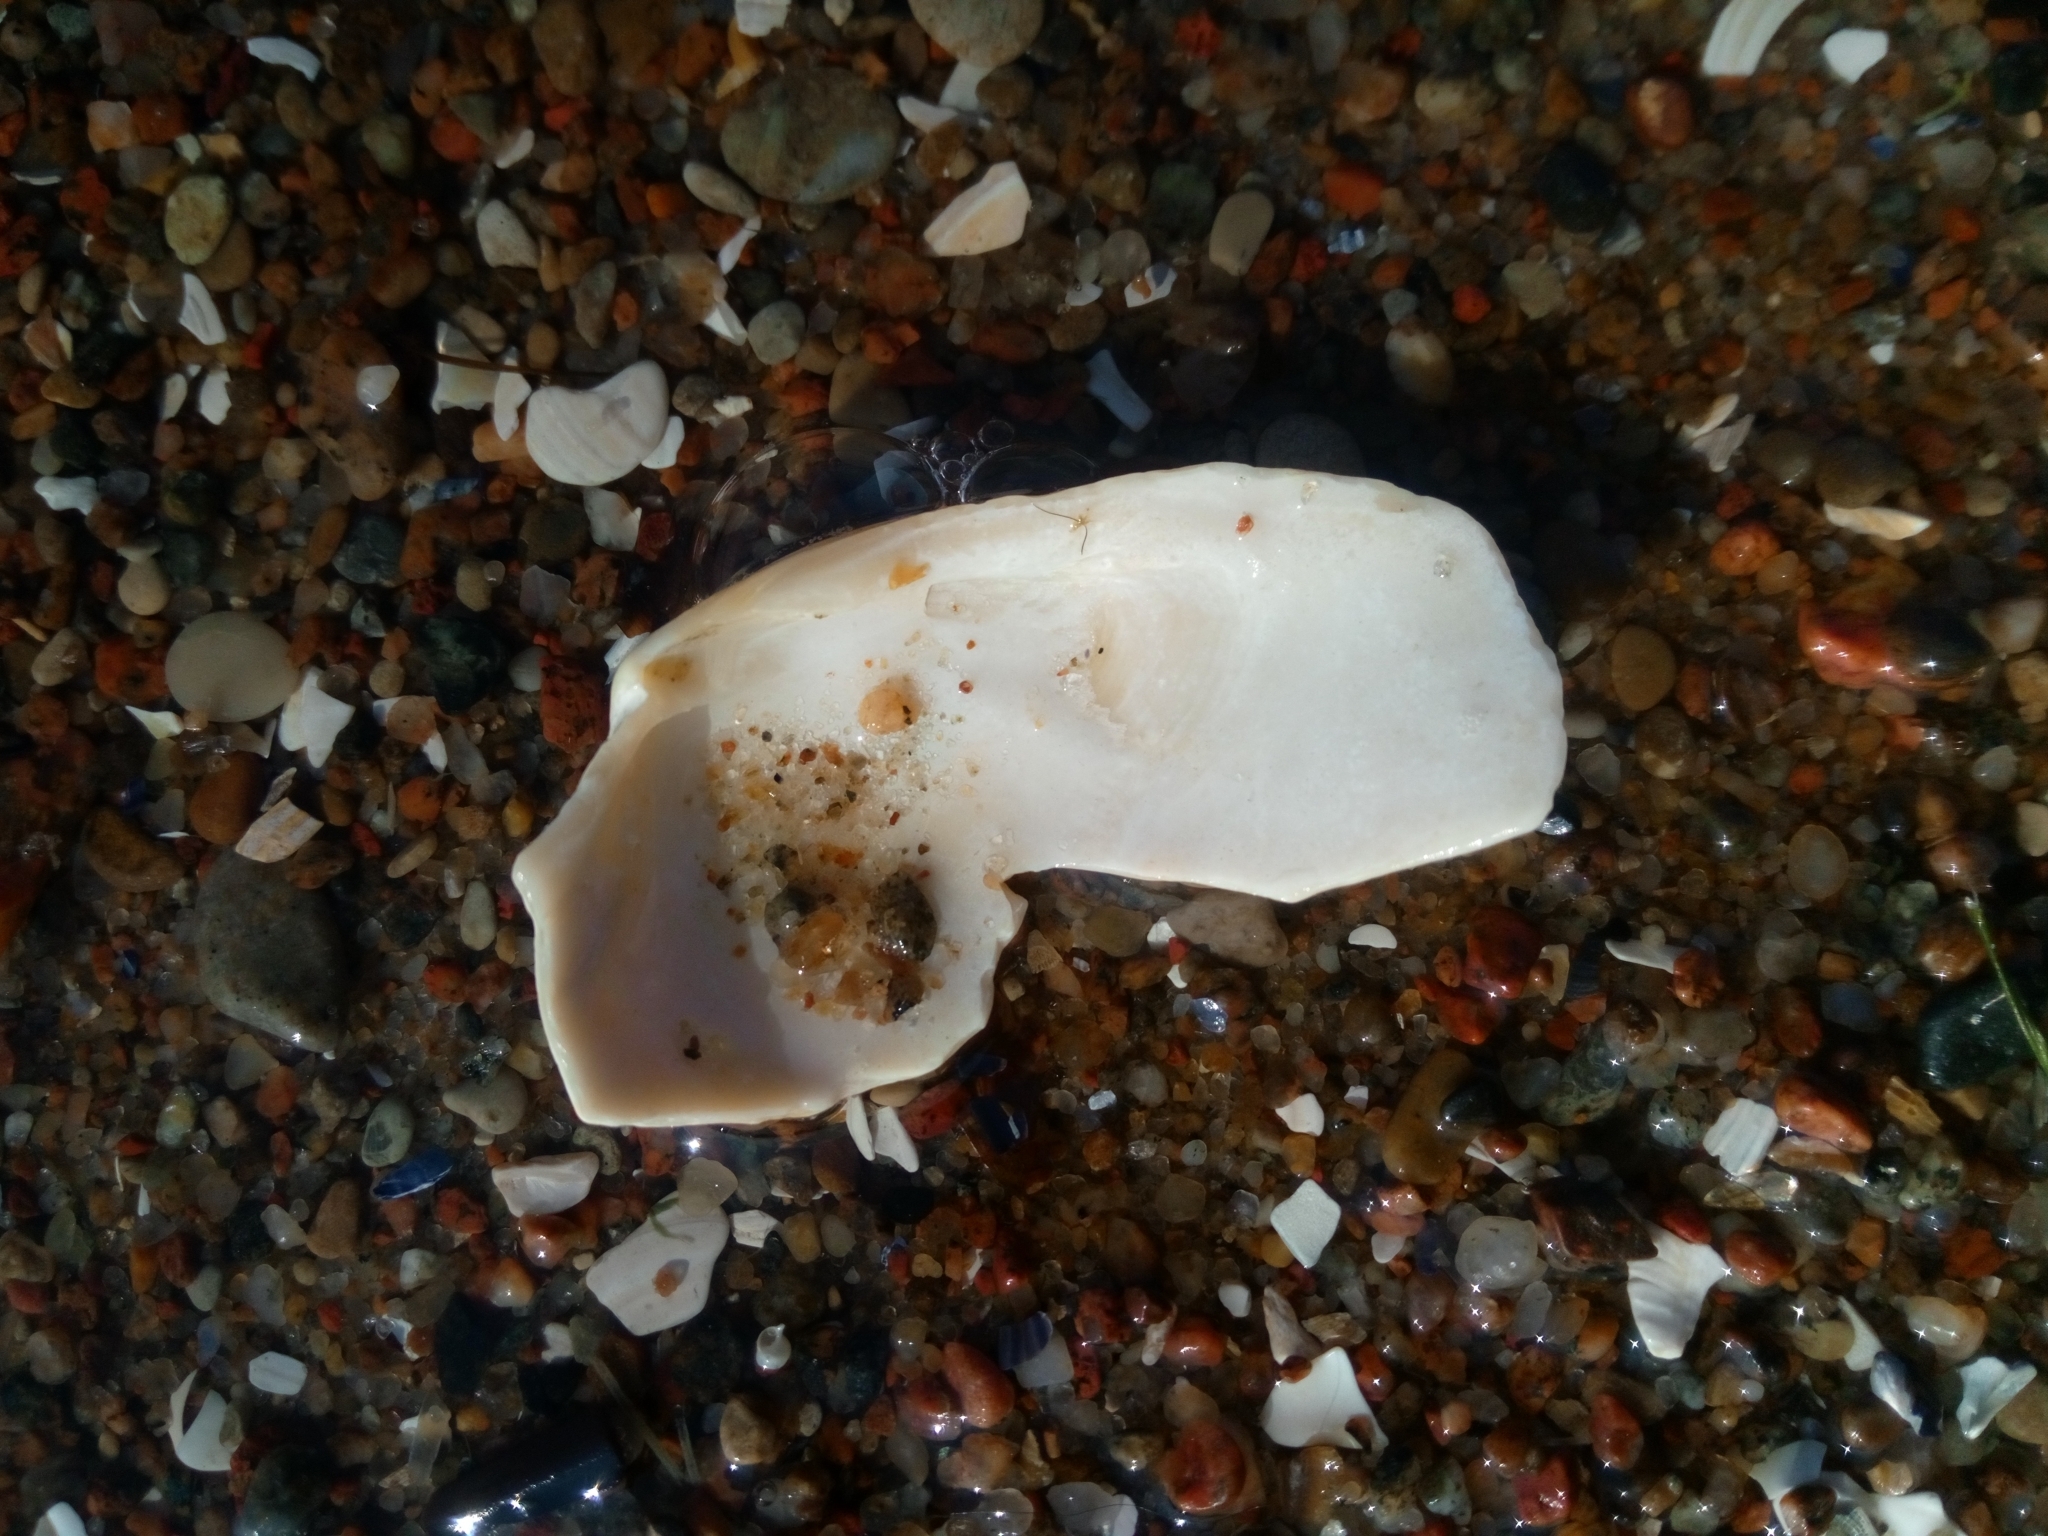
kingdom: Animalia
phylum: Mollusca
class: Bivalvia
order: Myida
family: Myidae
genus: Mya
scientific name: Mya arenaria
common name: Soft-shelled clam
